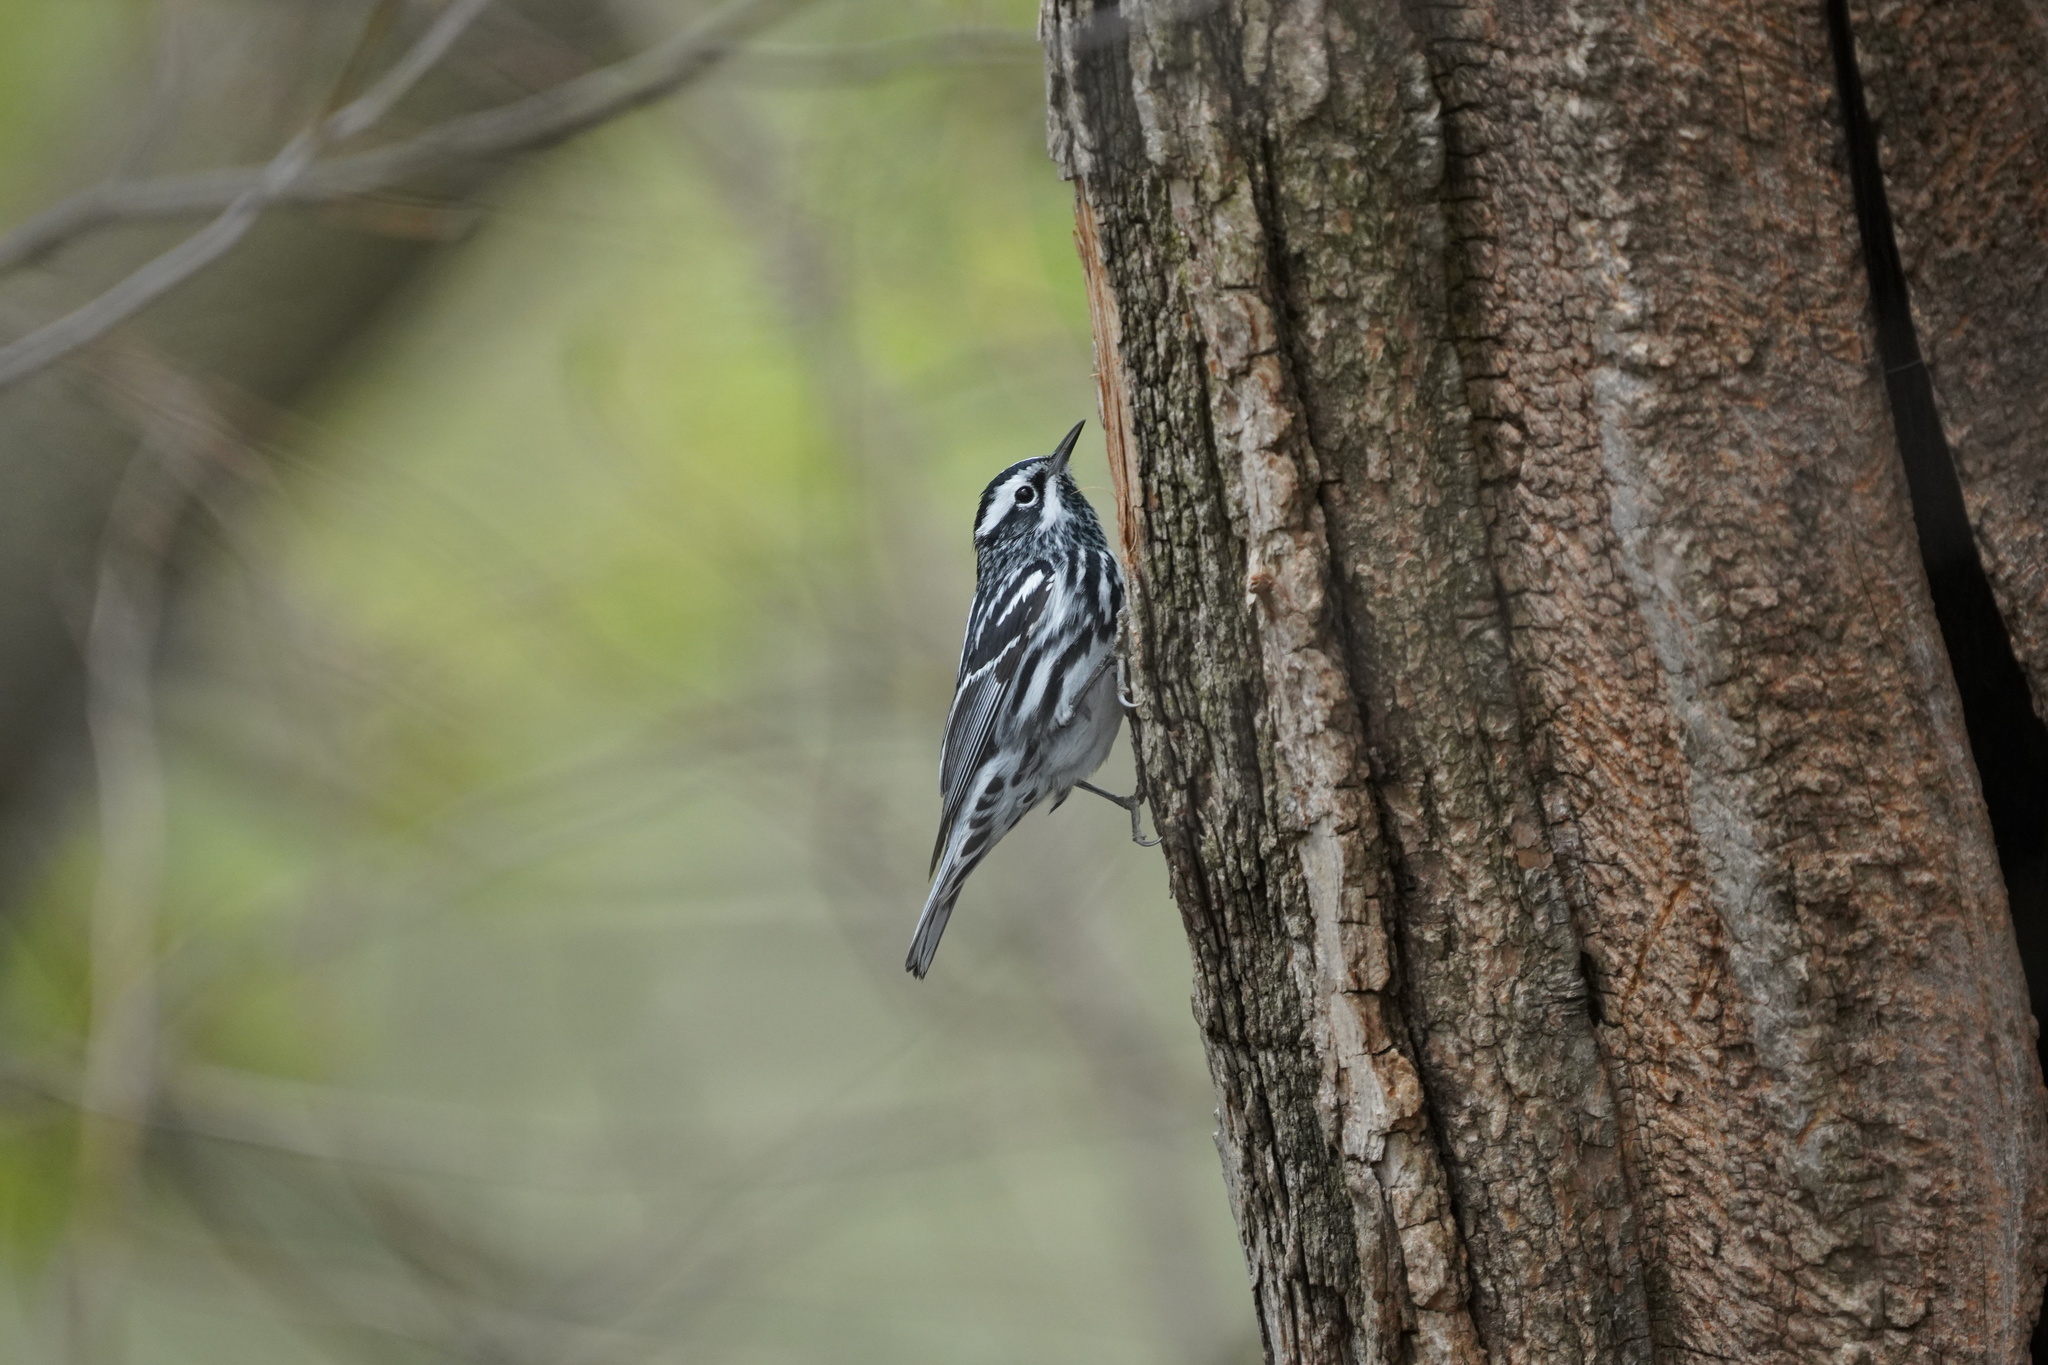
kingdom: Animalia
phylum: Chordata
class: Aves
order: Passeriformes
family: Parulidae
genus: Mniotilta
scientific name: Mniotilta varia
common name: Black-and-white warbler
